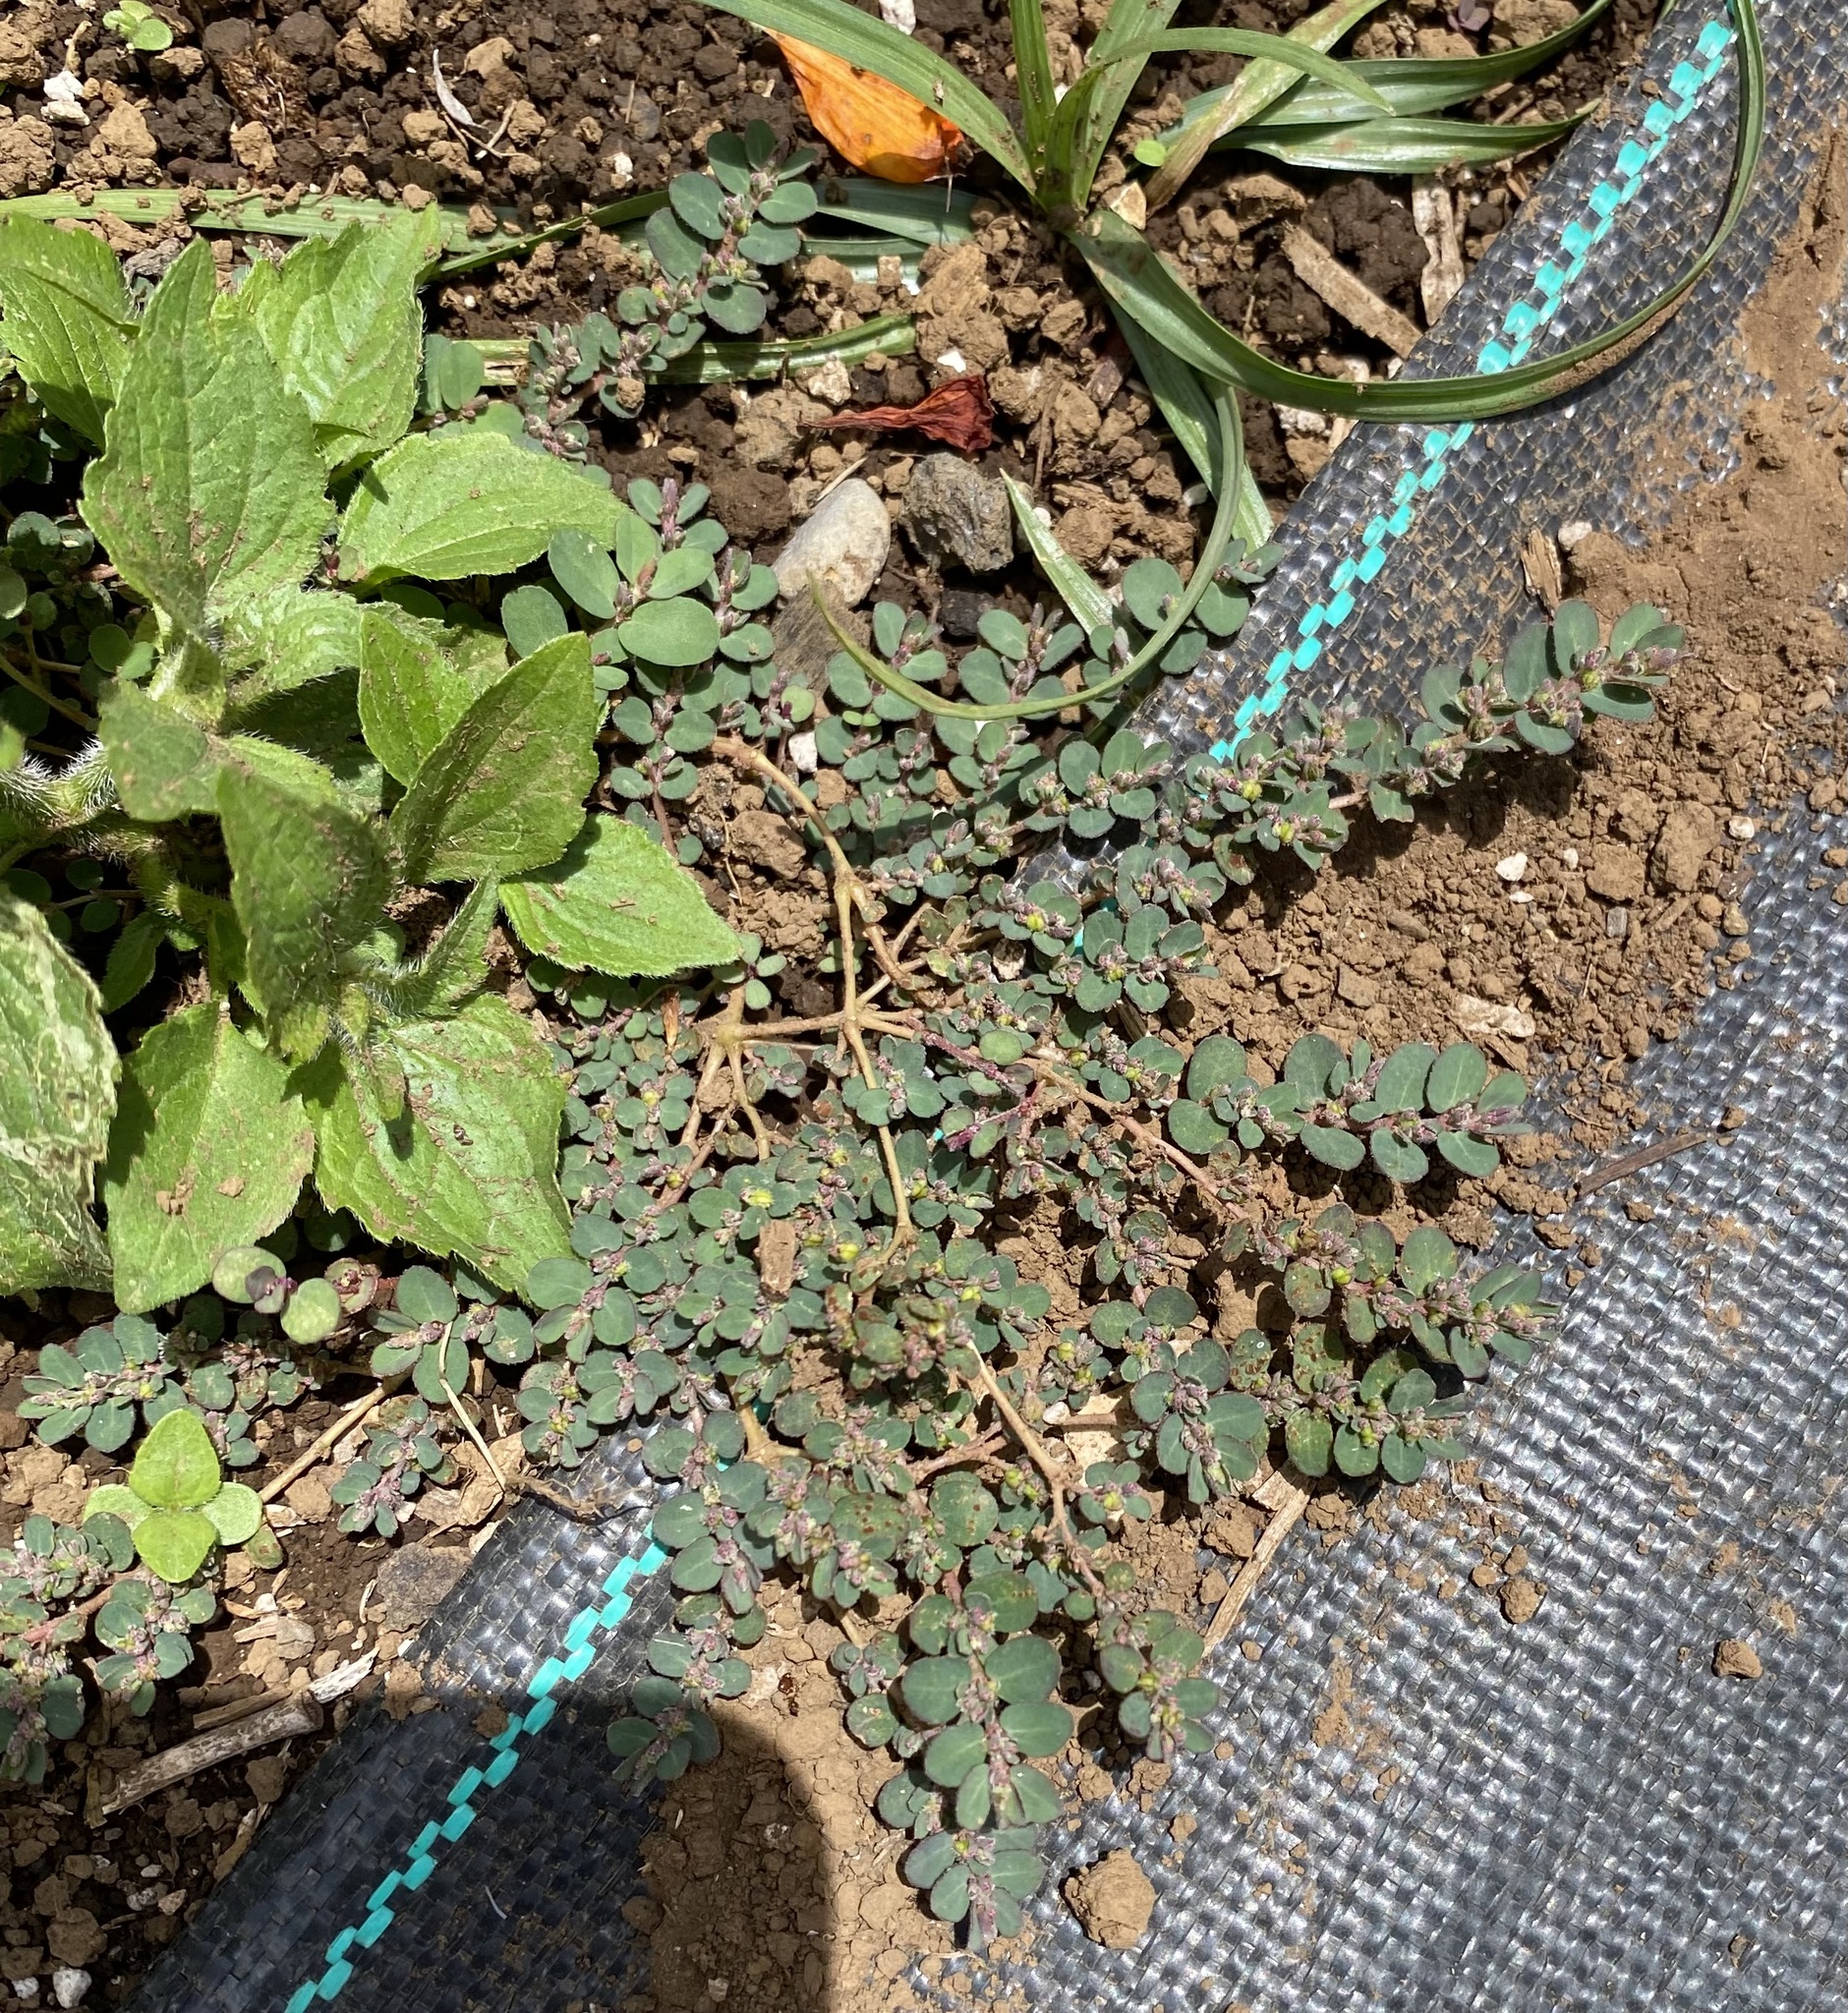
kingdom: Plantae
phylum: Tracheophyta
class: Magnoliopsida
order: Malpighiales
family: Euphorbiaceae
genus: Euphorbia
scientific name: Euphorbia prostrata
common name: Prostrate sandmat
